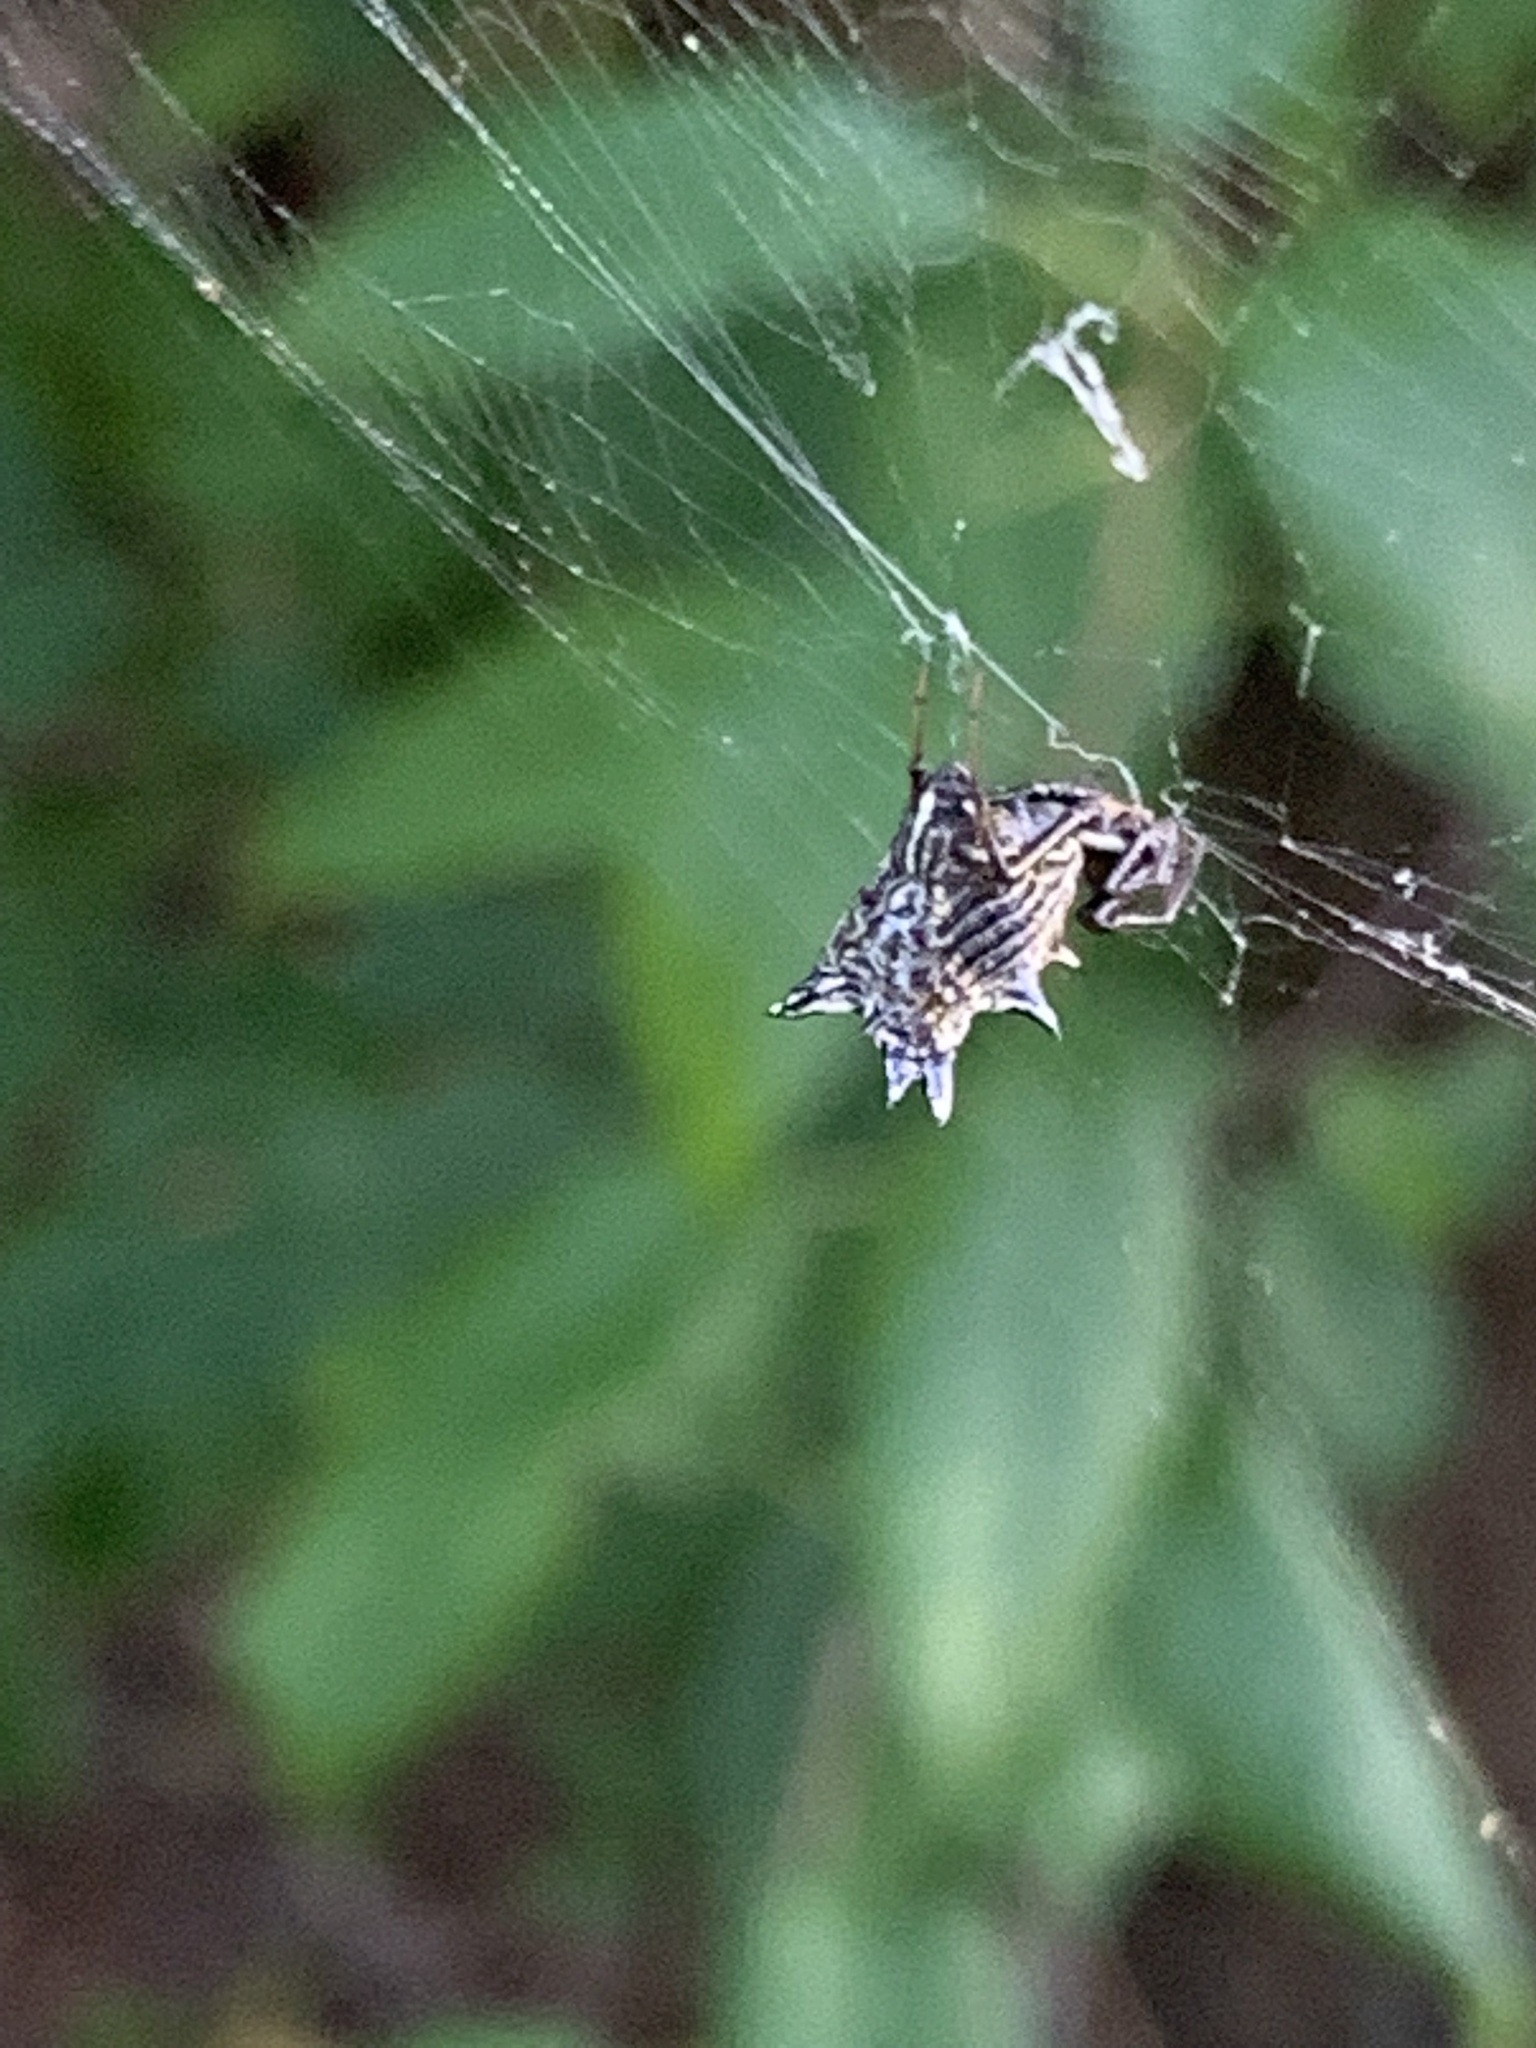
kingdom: Animalia
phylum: Arthropoda
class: Arachnida
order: Araneae
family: Araneidae
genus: Micrathena
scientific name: Micrathena gracilis
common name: Orb weavers
